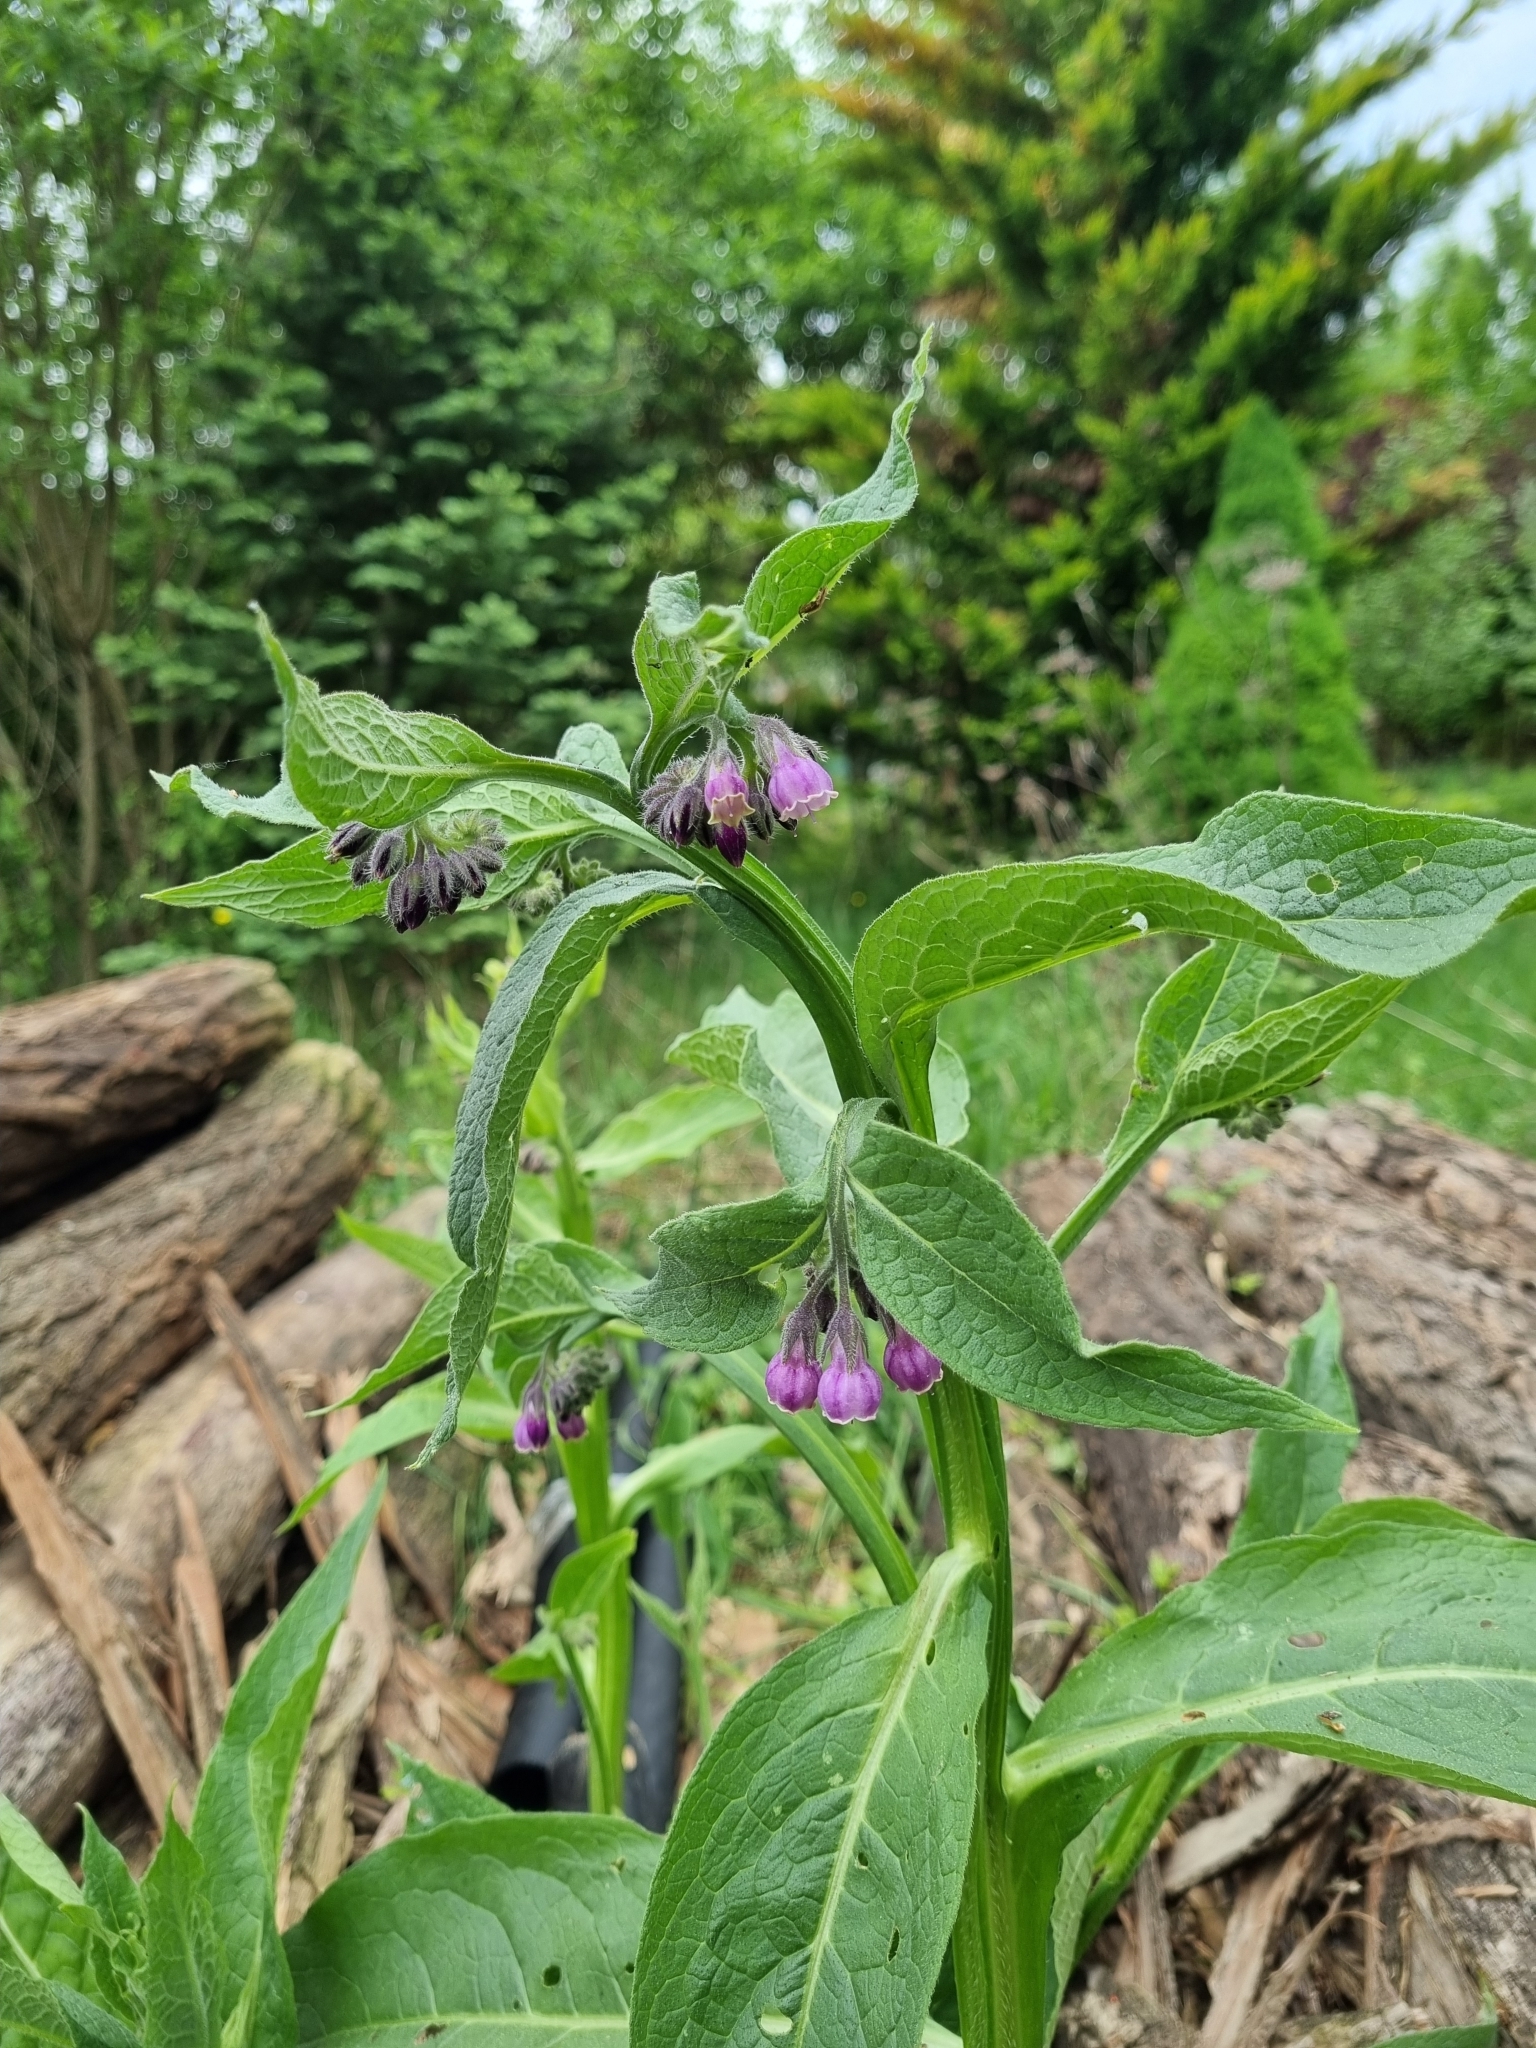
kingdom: Plantae
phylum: Tracheophyta
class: Magnoliopsida
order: Boraginales
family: Boraginaceae
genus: Symphytum
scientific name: Symphytum officinale
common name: Common comfrey
